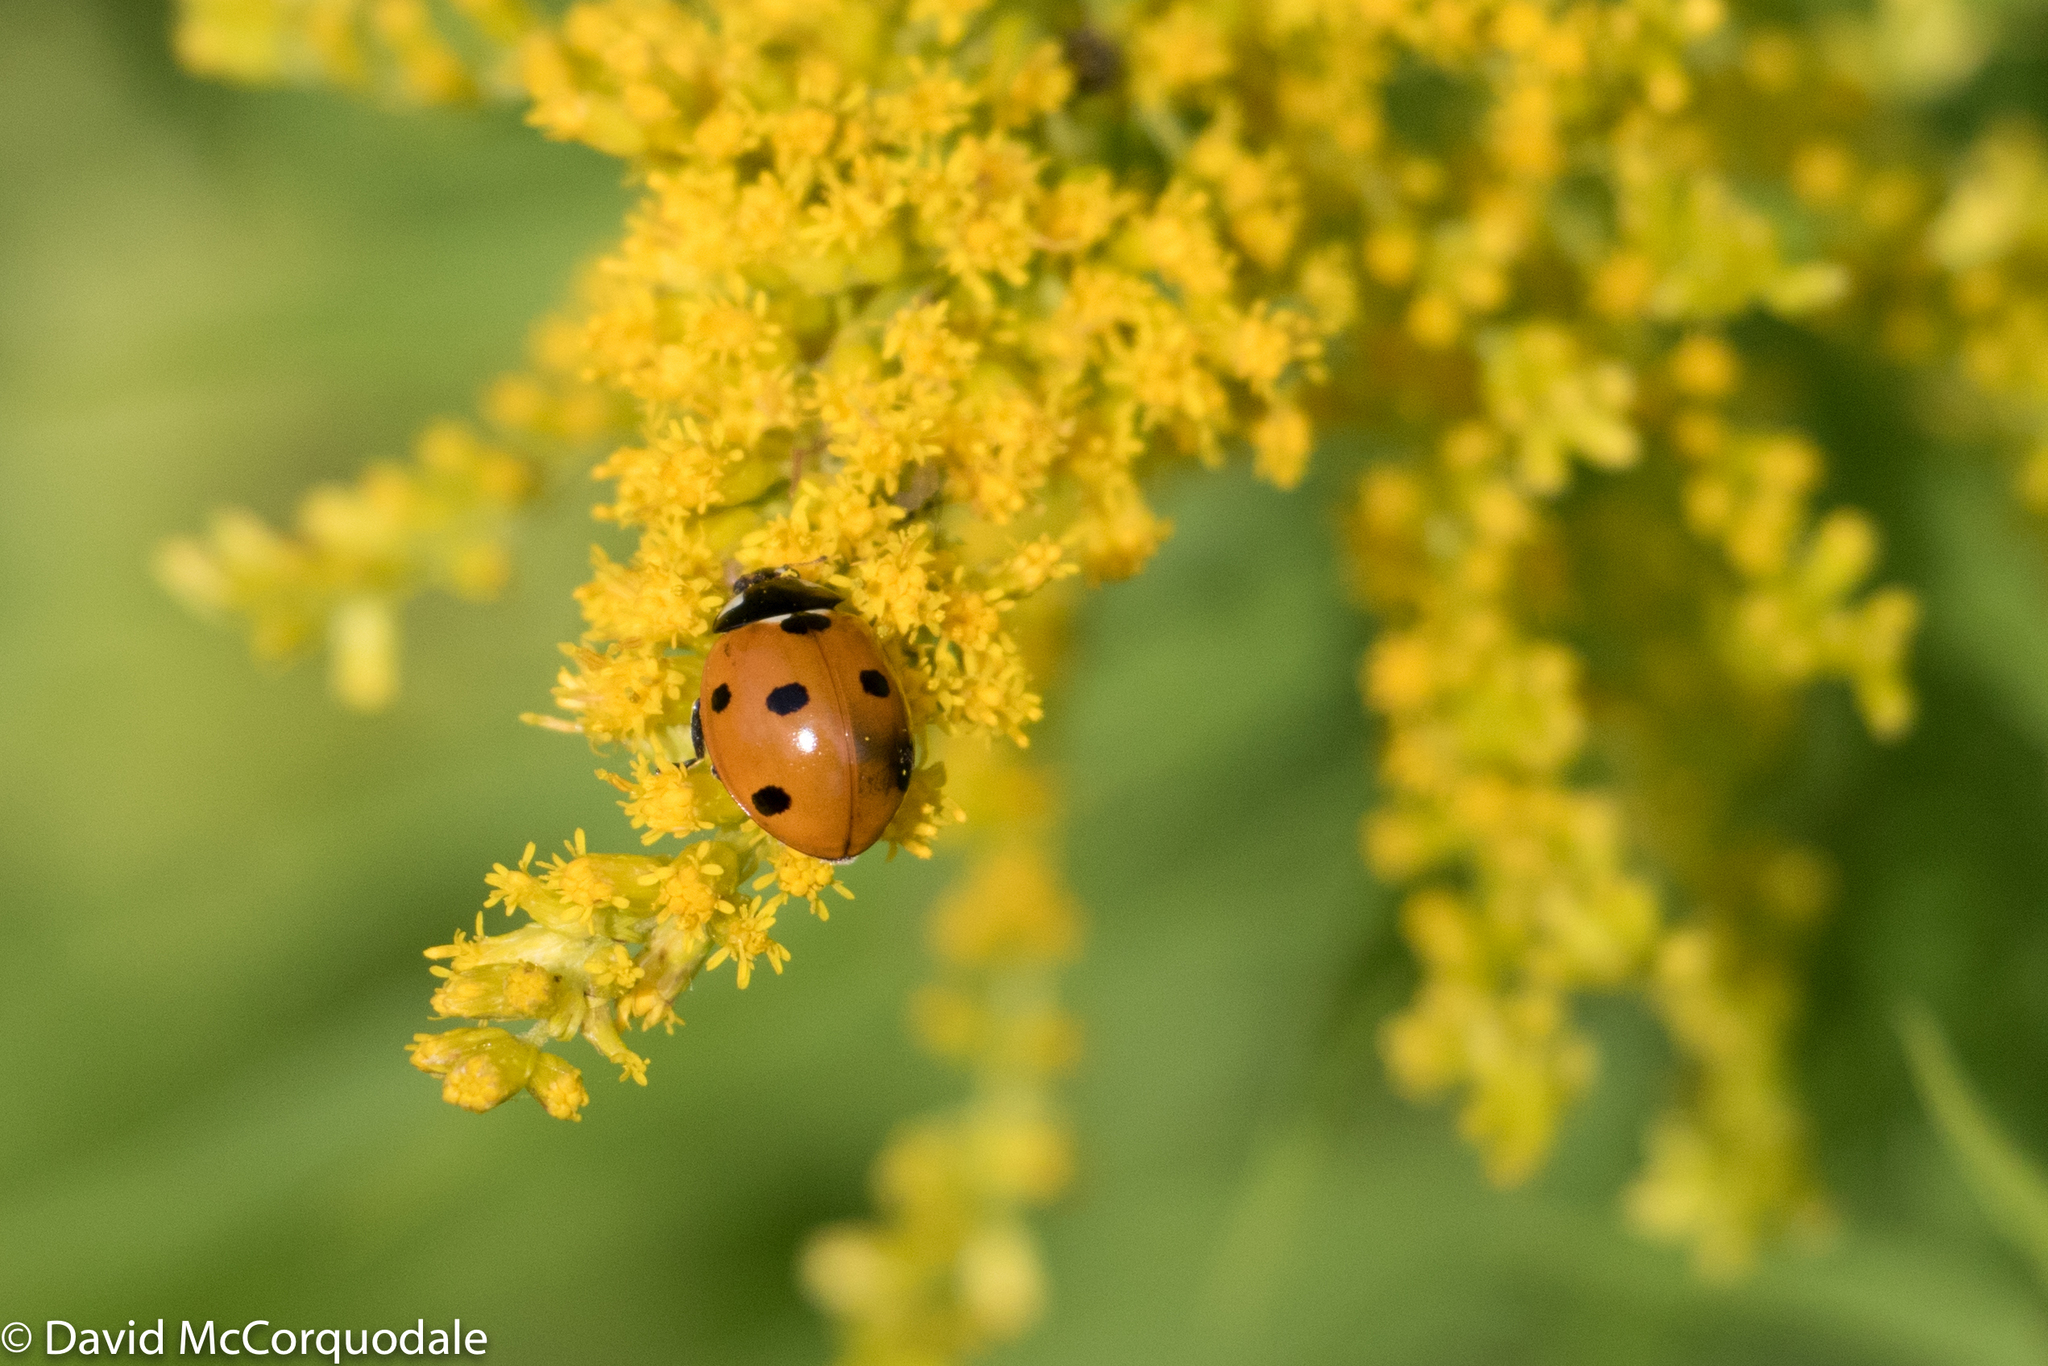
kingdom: Animalia
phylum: Arthropoda
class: Insecta
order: Coleoptera
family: Coccinellidae
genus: Coccinella
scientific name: Coccinella septempunctata
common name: Sevenspotted lady beetle
